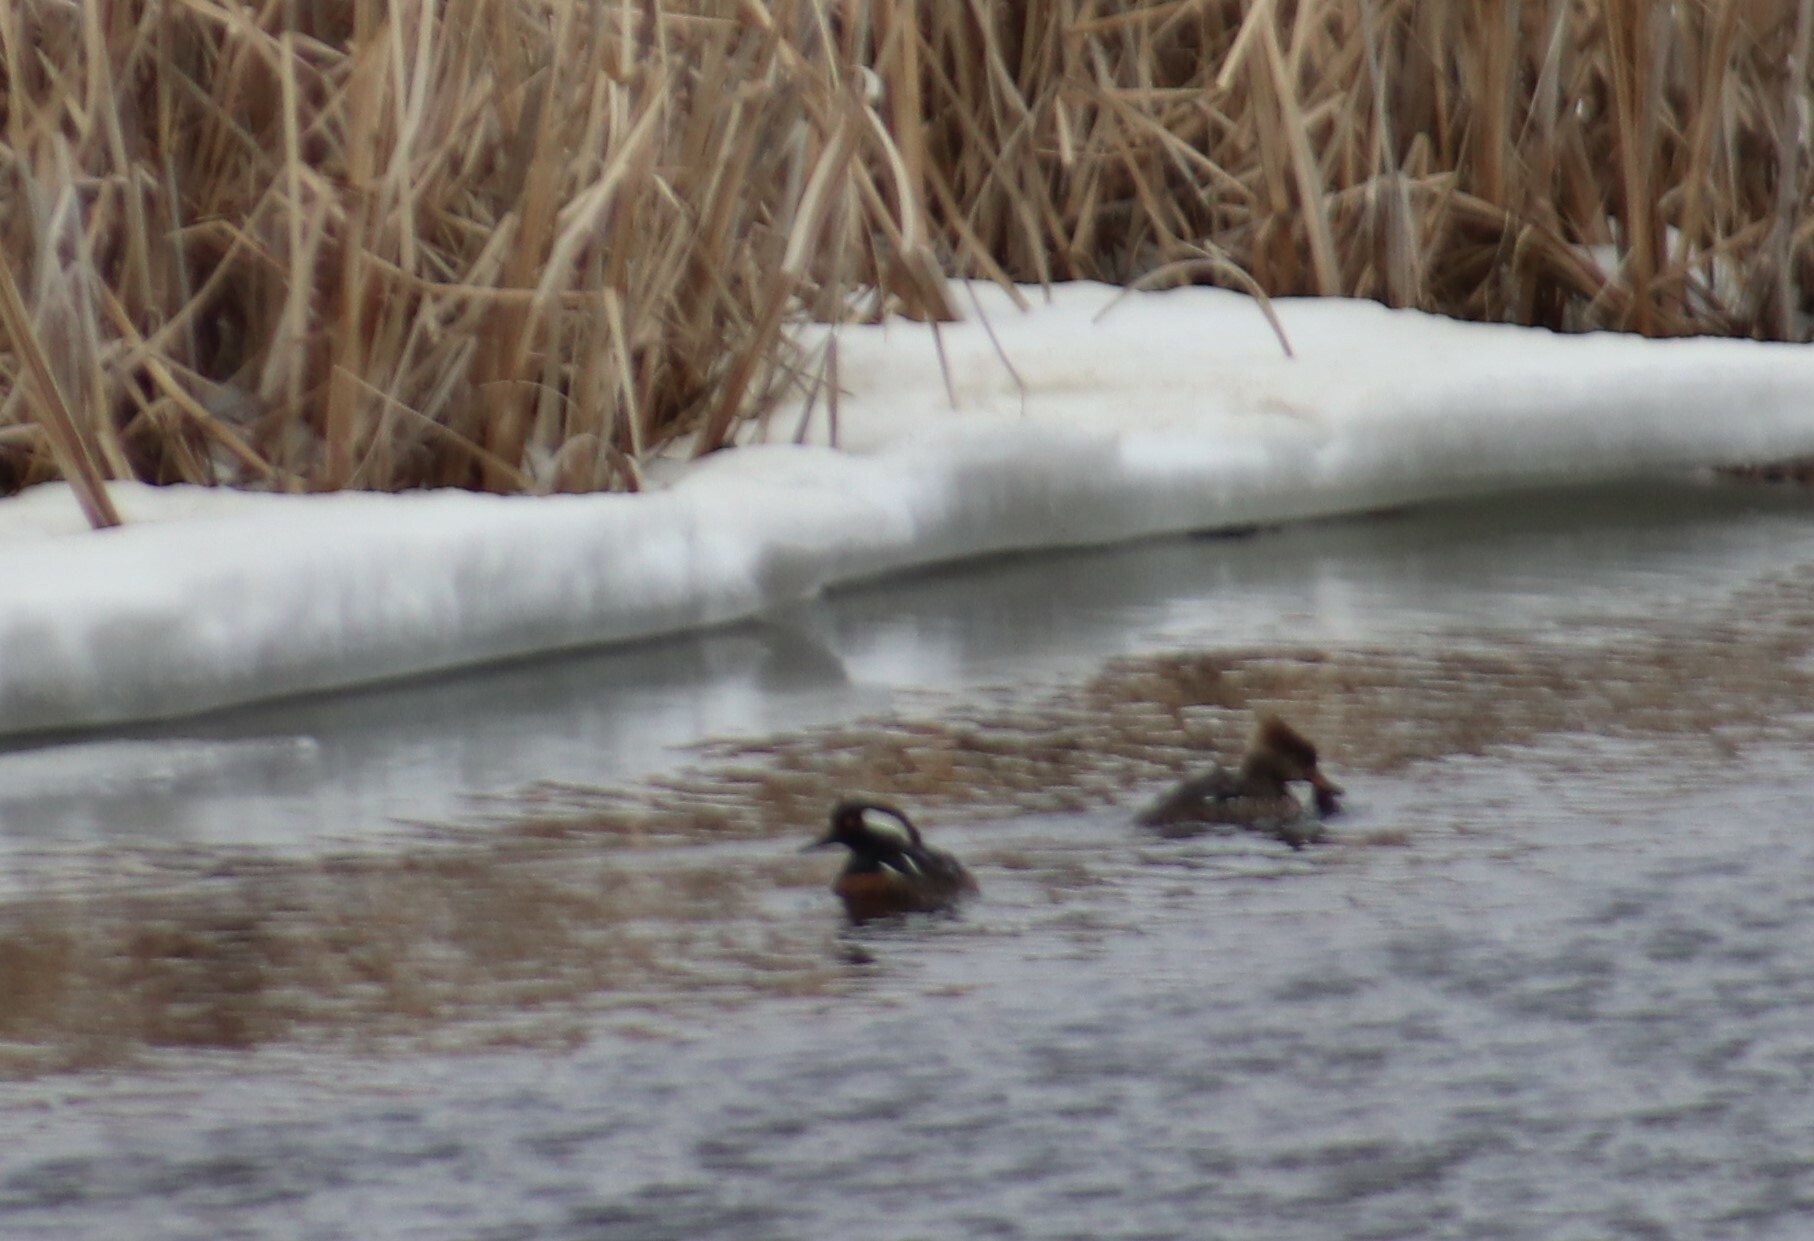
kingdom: Animalia
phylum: Chordata
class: Aves
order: Anseriformes
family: Anatidae
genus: Lophodytes
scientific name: Lophodytes cucullatus
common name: Hooded merganser
